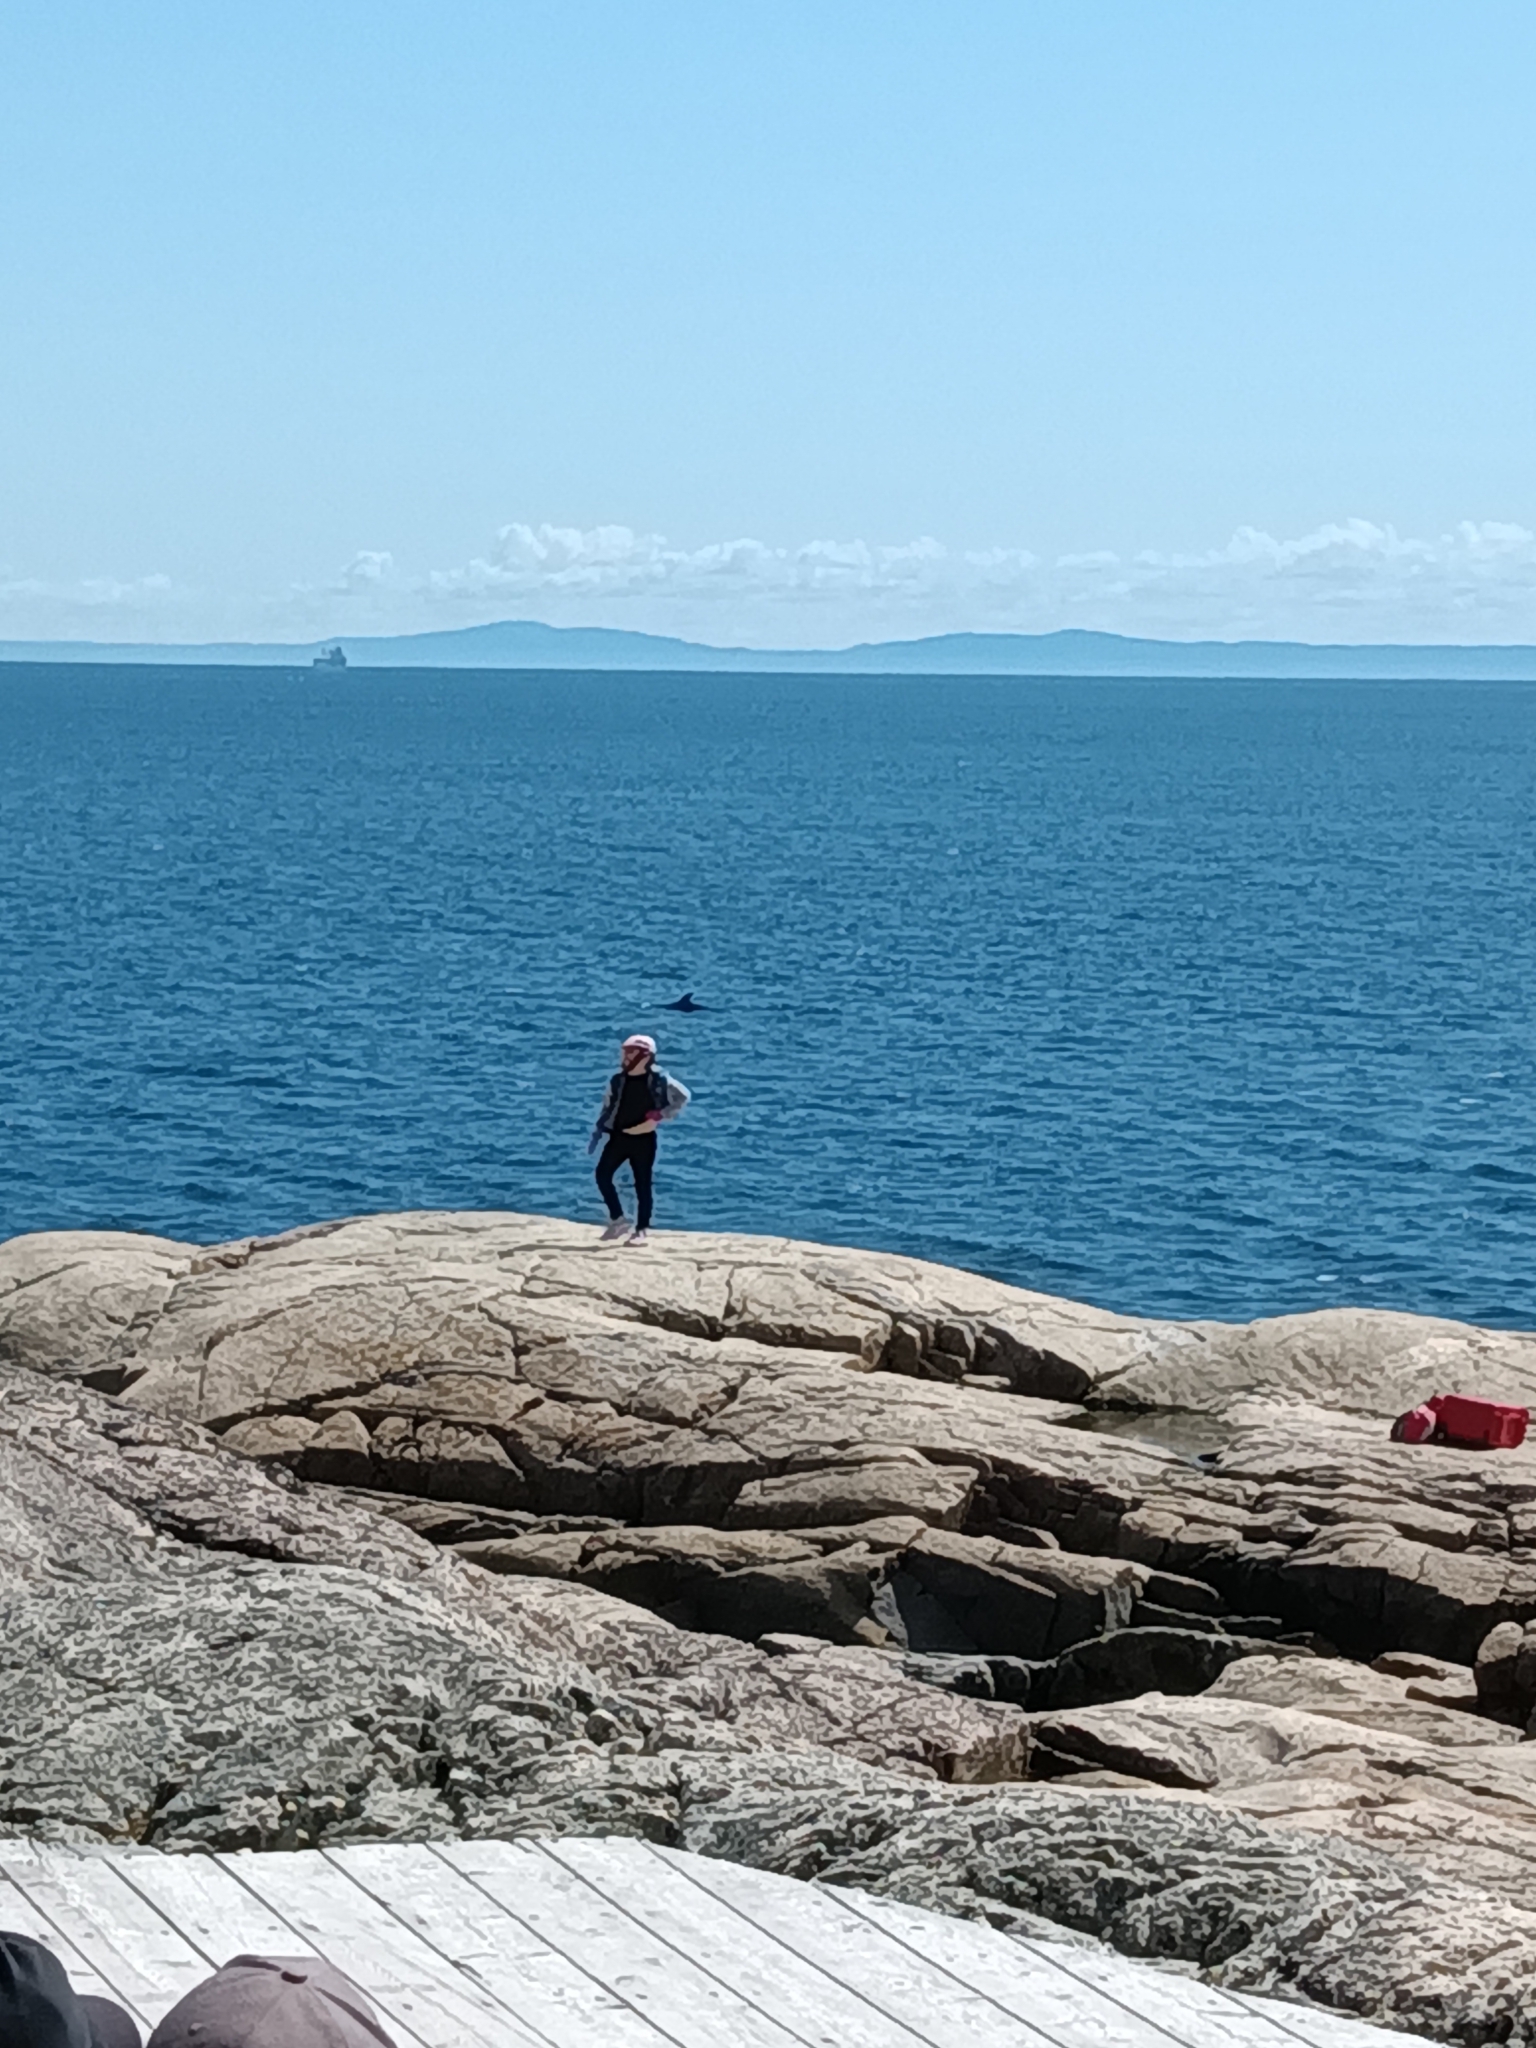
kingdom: Animalia
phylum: Chordata
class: Mammalia
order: Cetacea
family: Balaenopteridae
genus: Balaenoptera
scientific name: Balaenoptera acutorostrata
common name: Common minke whale
